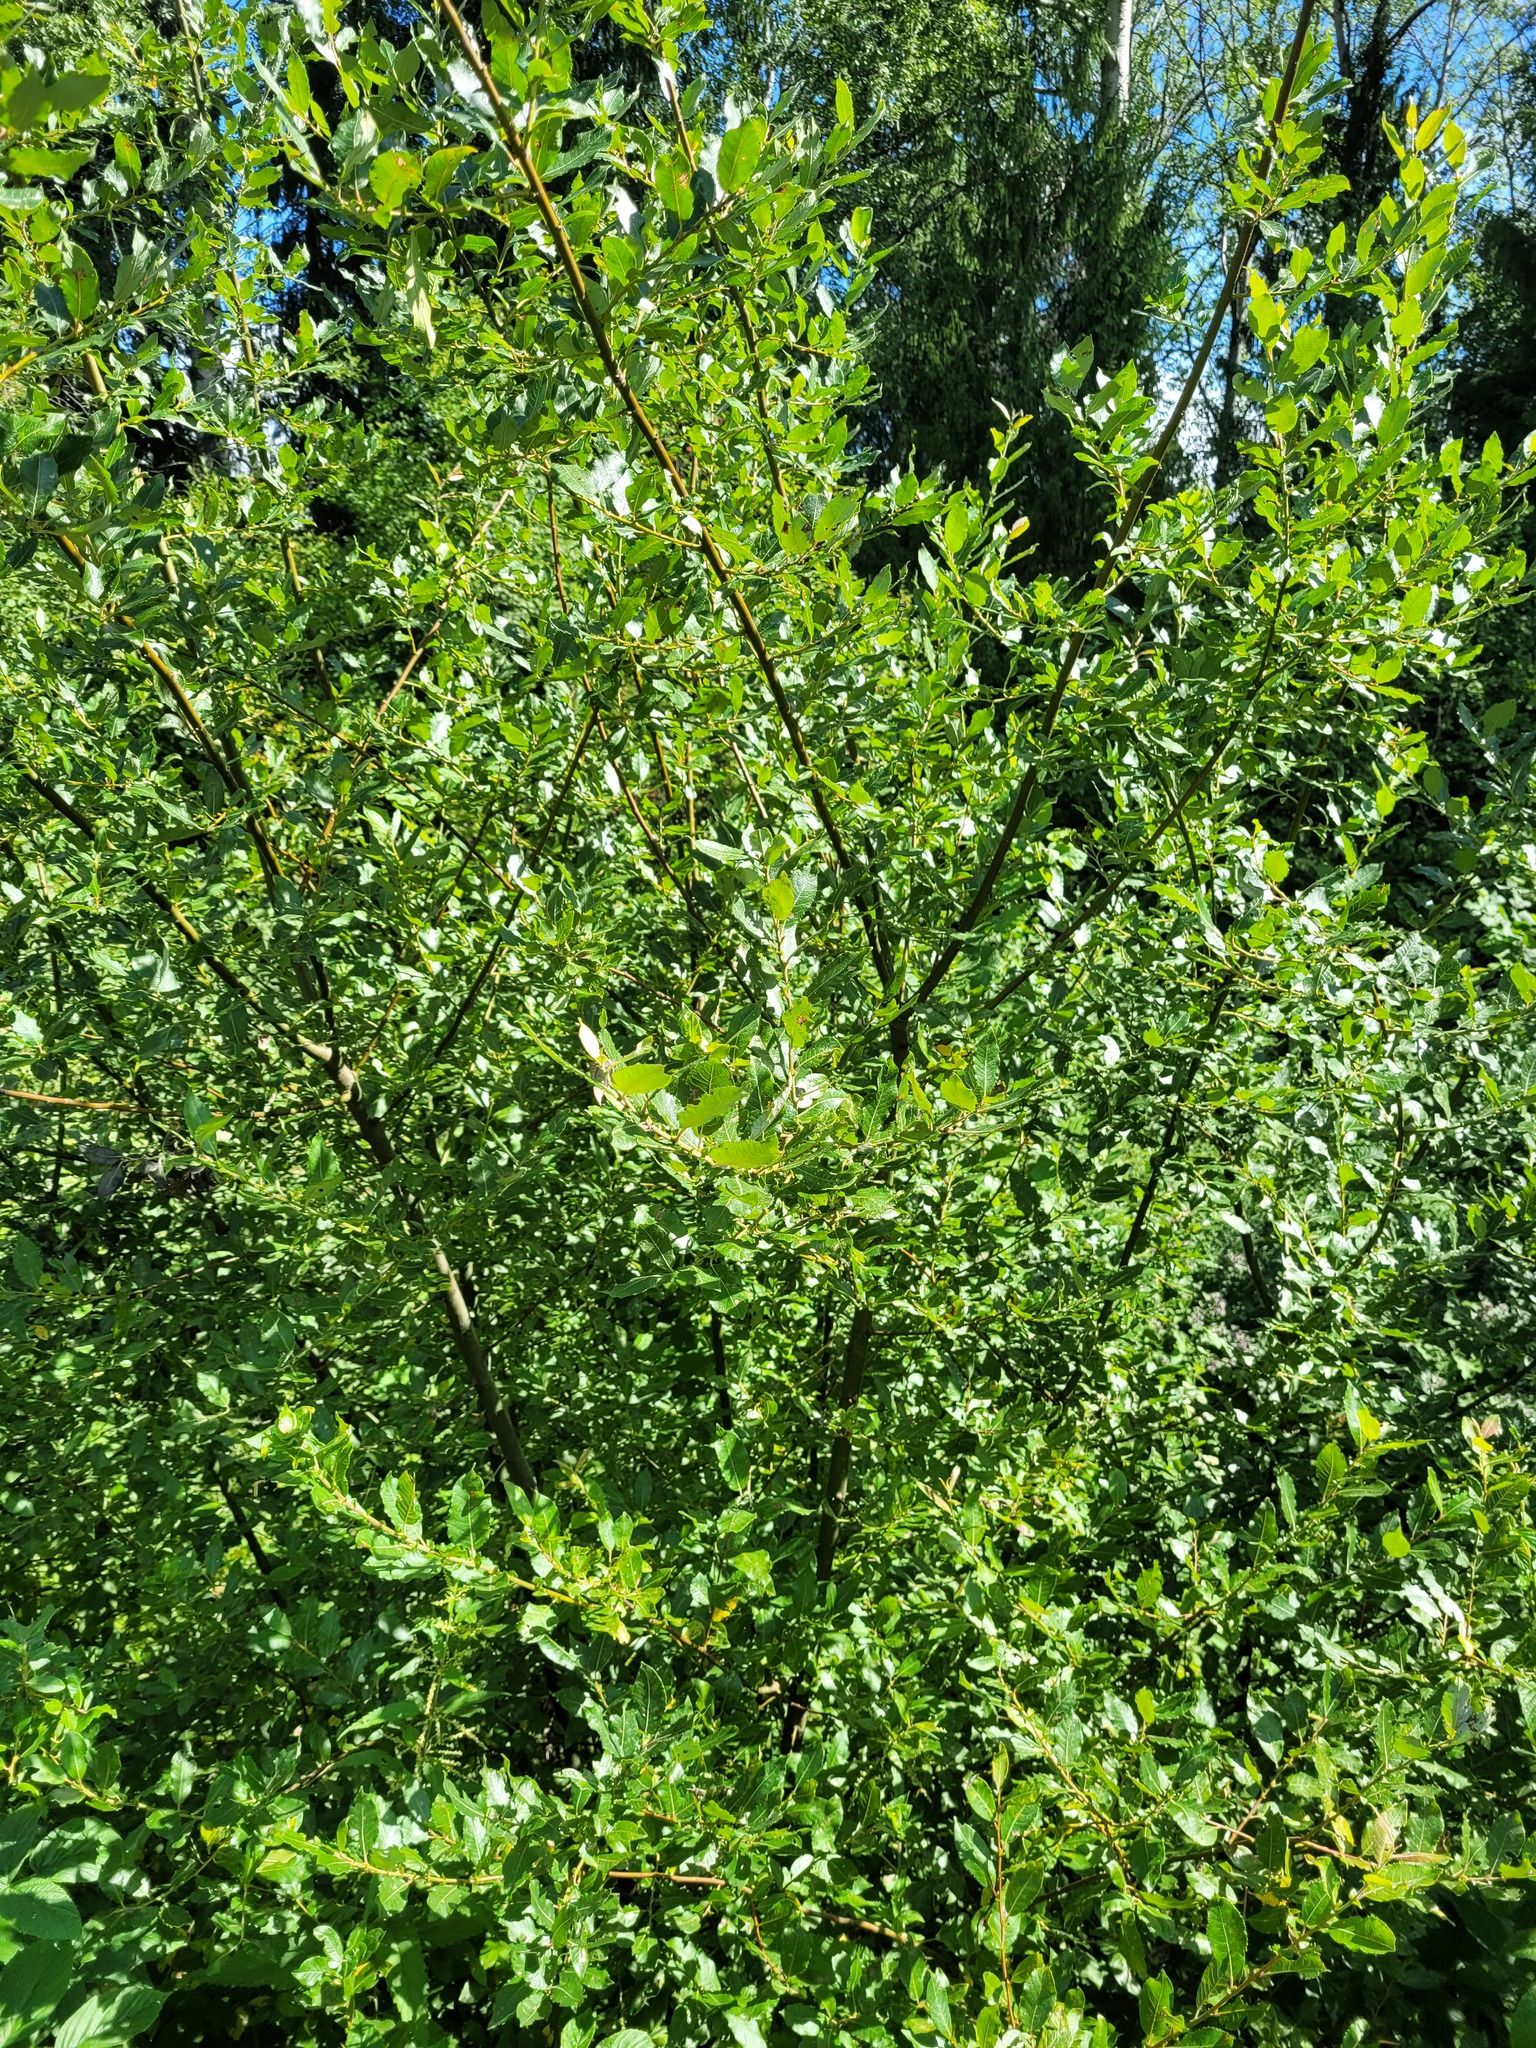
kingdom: Plantae
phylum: Tracheophyta
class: Magnoliopsida
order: Malpighiales
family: Salicaceae
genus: Salix
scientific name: Salix myrsinifolia
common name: Dark-leaved willow
